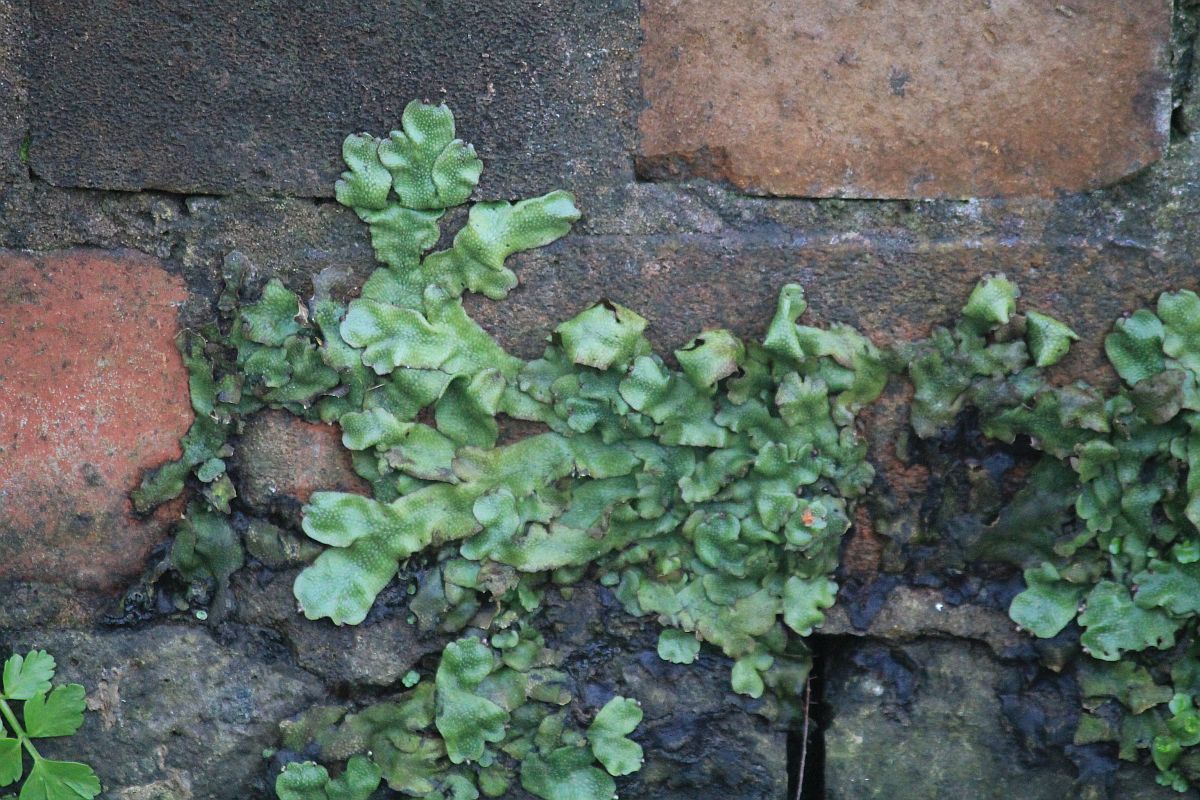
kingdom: Plantae
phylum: Marchantiophyta
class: Marchantiopsida
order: Marchantiales
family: Conocephalaceae
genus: Conocephalum
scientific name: Conocephalum conicum
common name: Great scented liverwort
